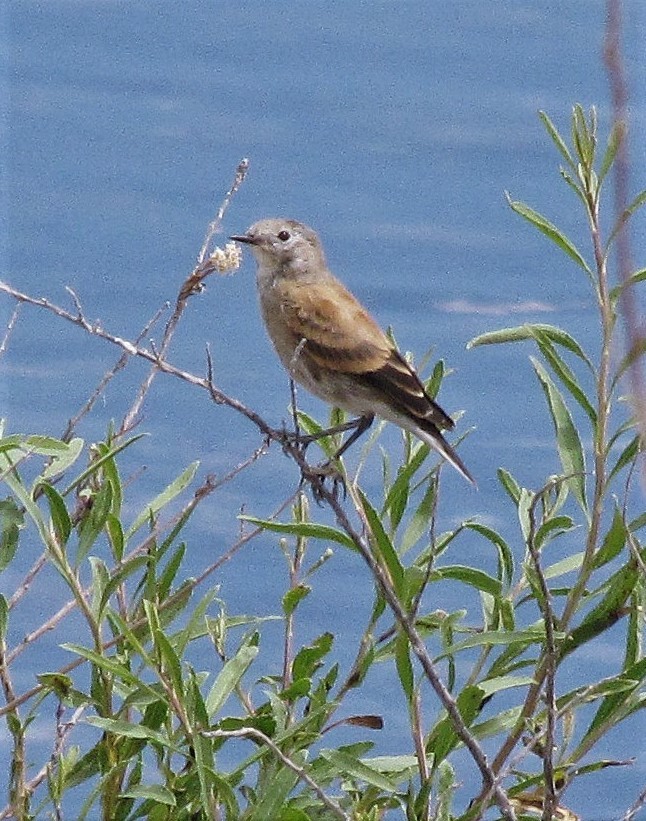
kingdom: Animalia
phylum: Chordata
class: Aves
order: Passeriformes
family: Tyrannidae
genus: Lessonia
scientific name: Lessonia rufa
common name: Austral negrito
